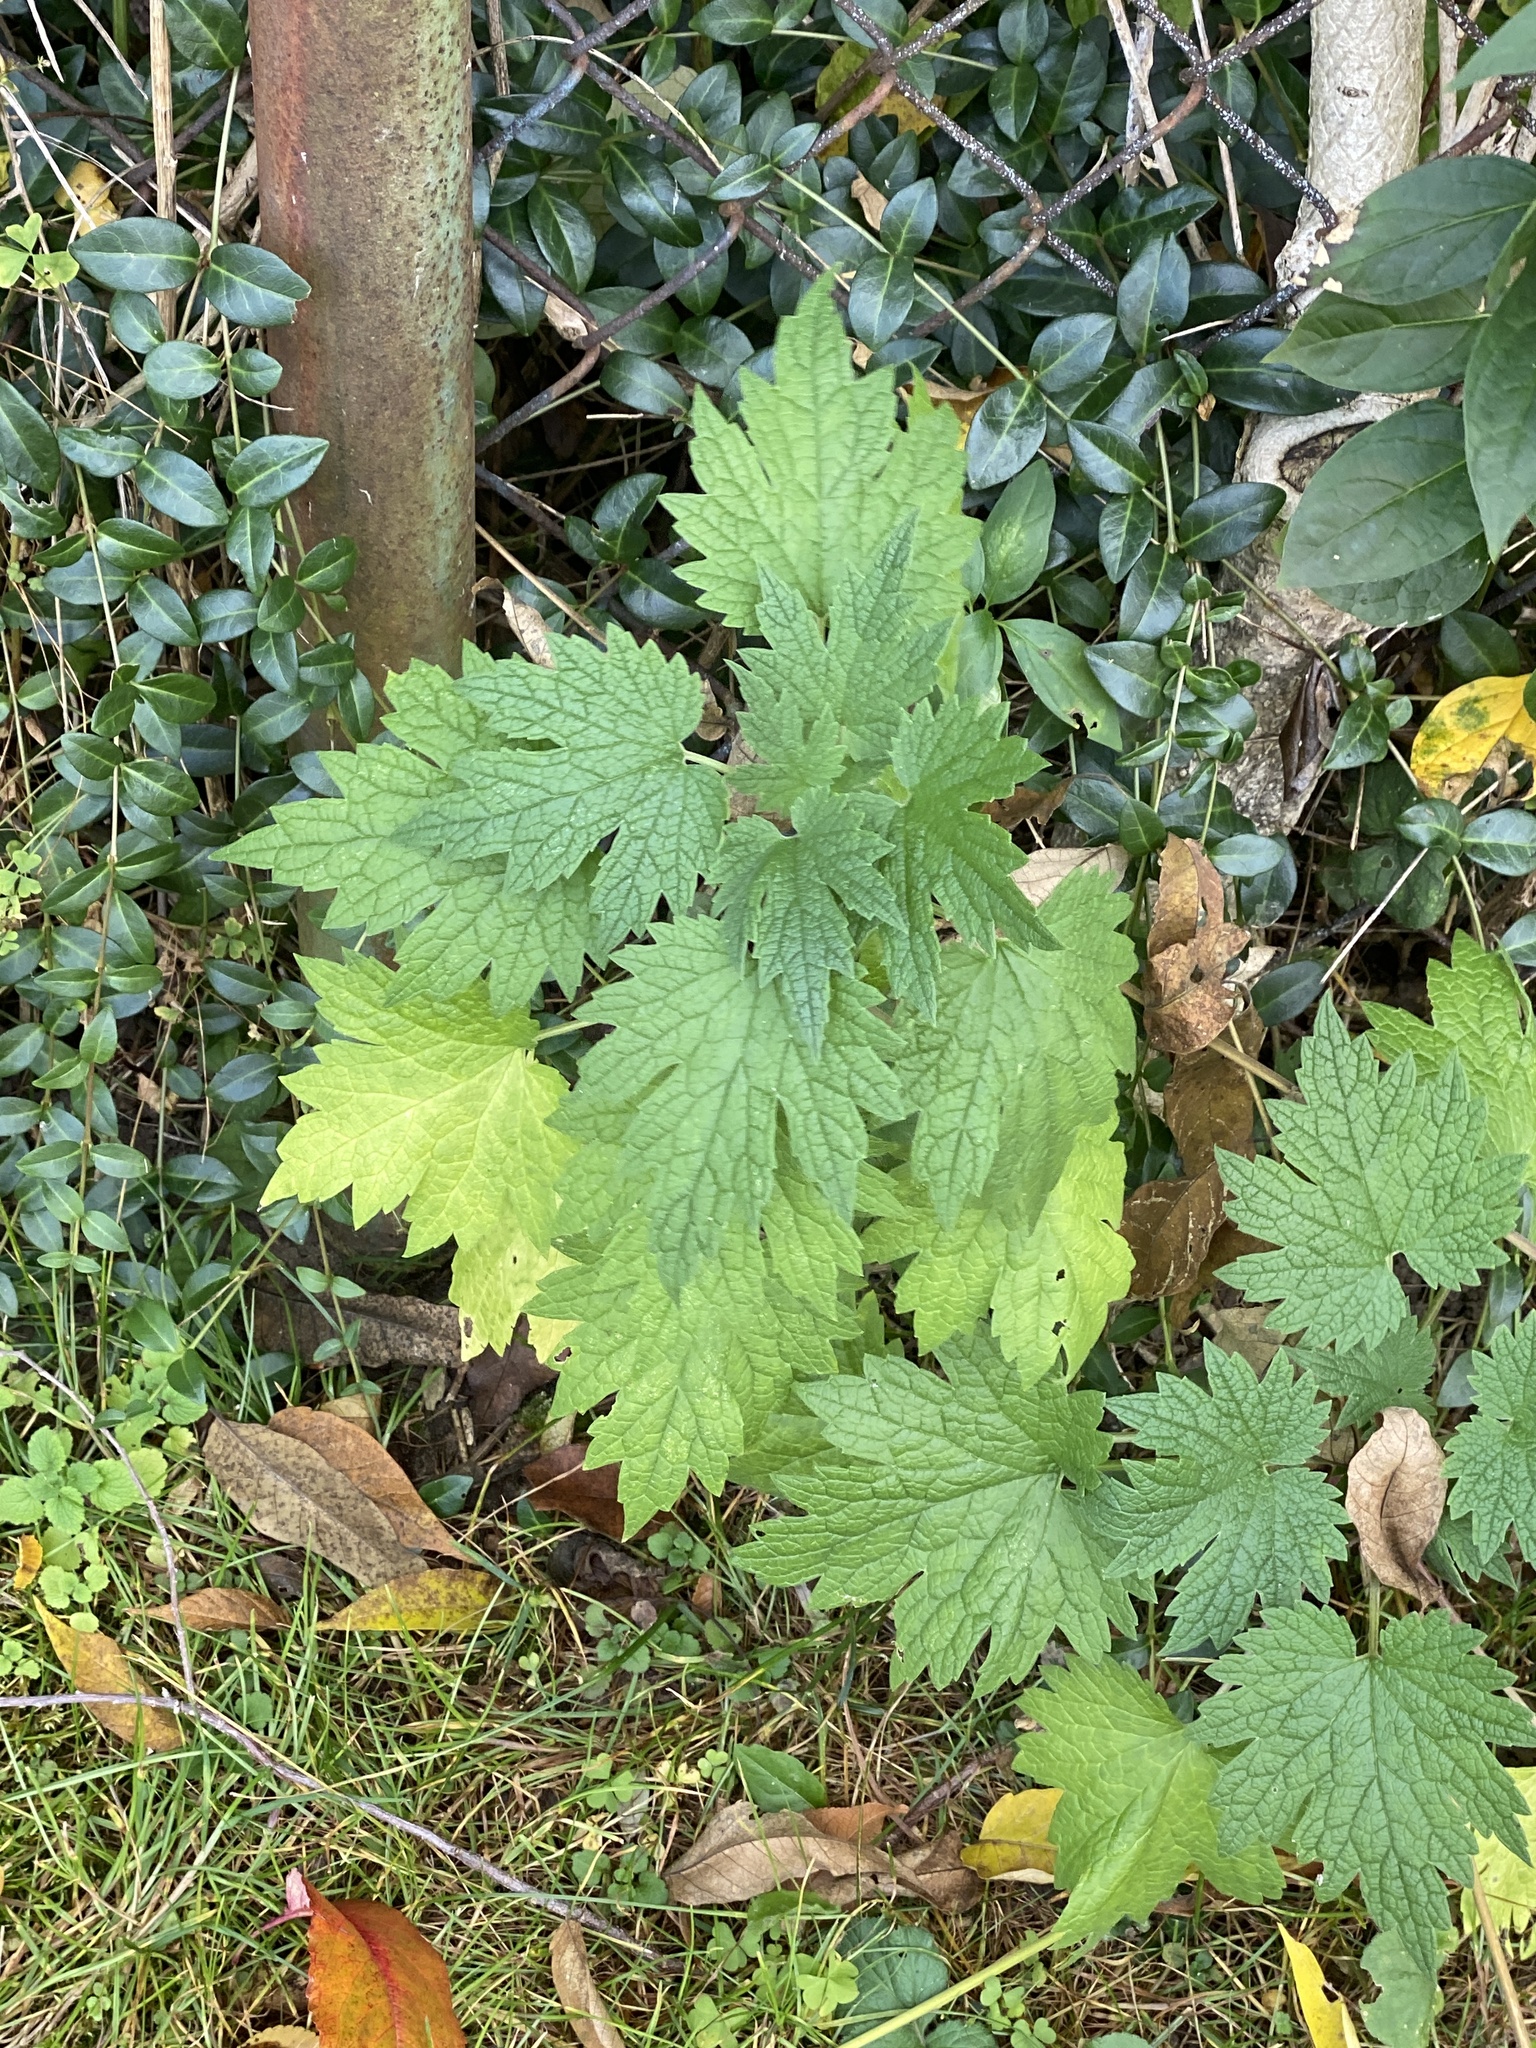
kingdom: Plantae
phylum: Tracheophyta
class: Magnoliopsida
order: Lamiales
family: Lamiaceae
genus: Leonurus
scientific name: Leonurus cardiaca
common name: Motherwort
